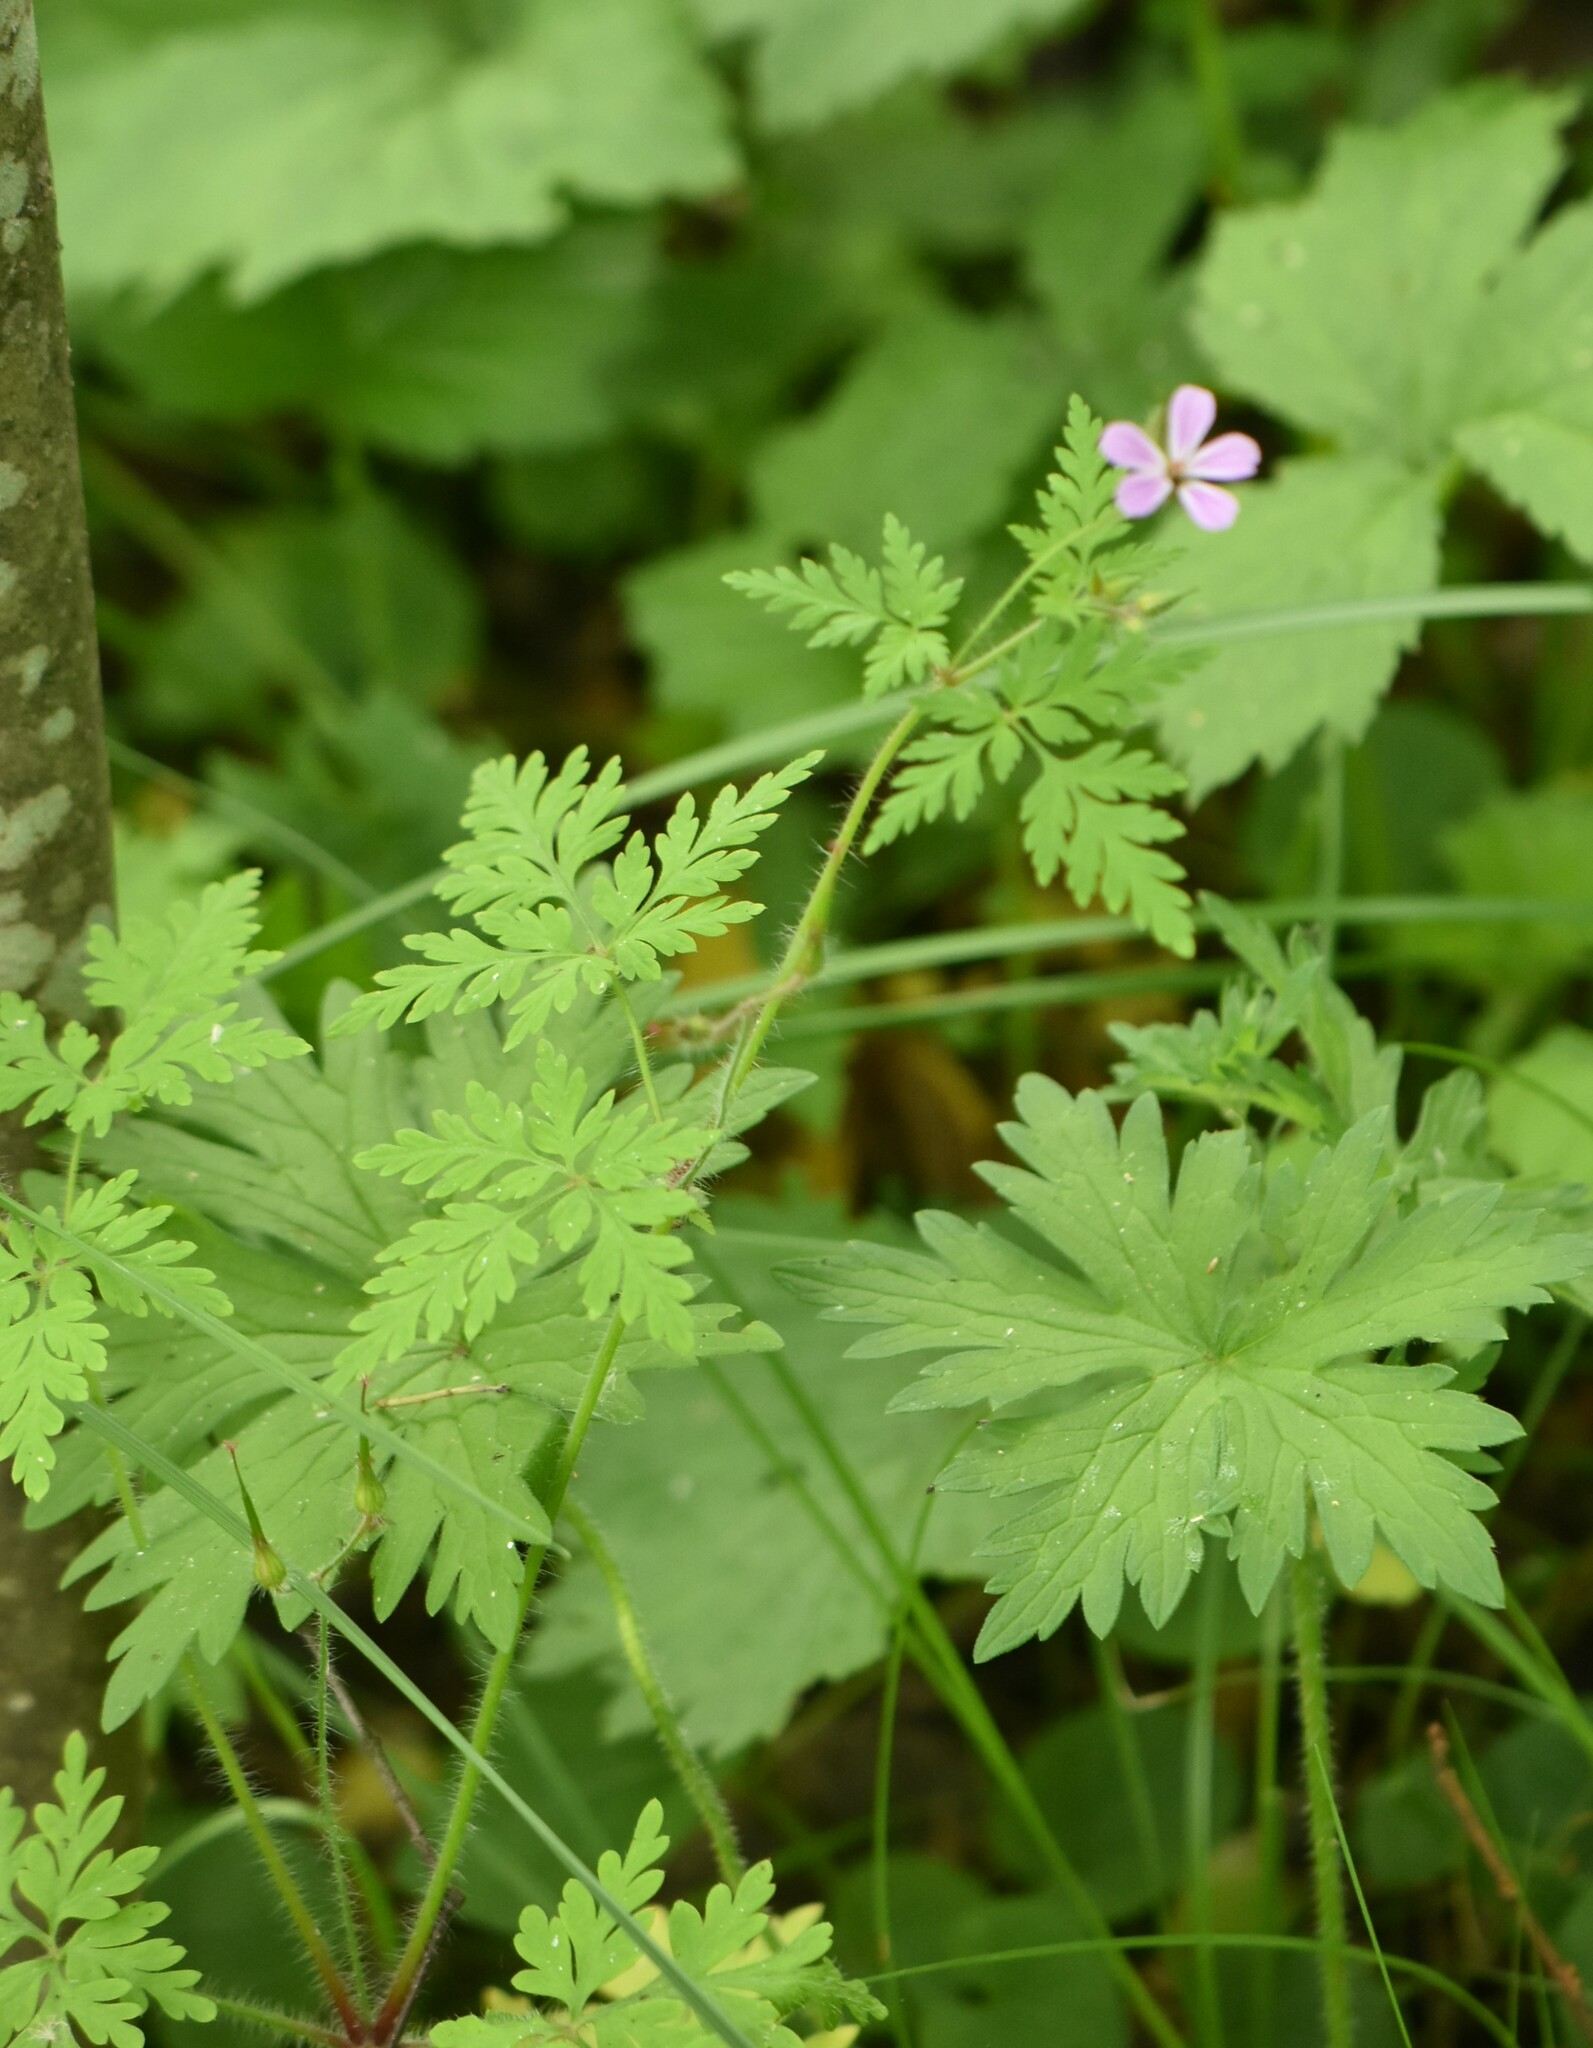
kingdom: Plantae
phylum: Tracheophyta
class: Magnoliopsida
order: Geraniales
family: Geraniaceae
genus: Geranium
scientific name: Geranium robertianum
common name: Herb-robert
